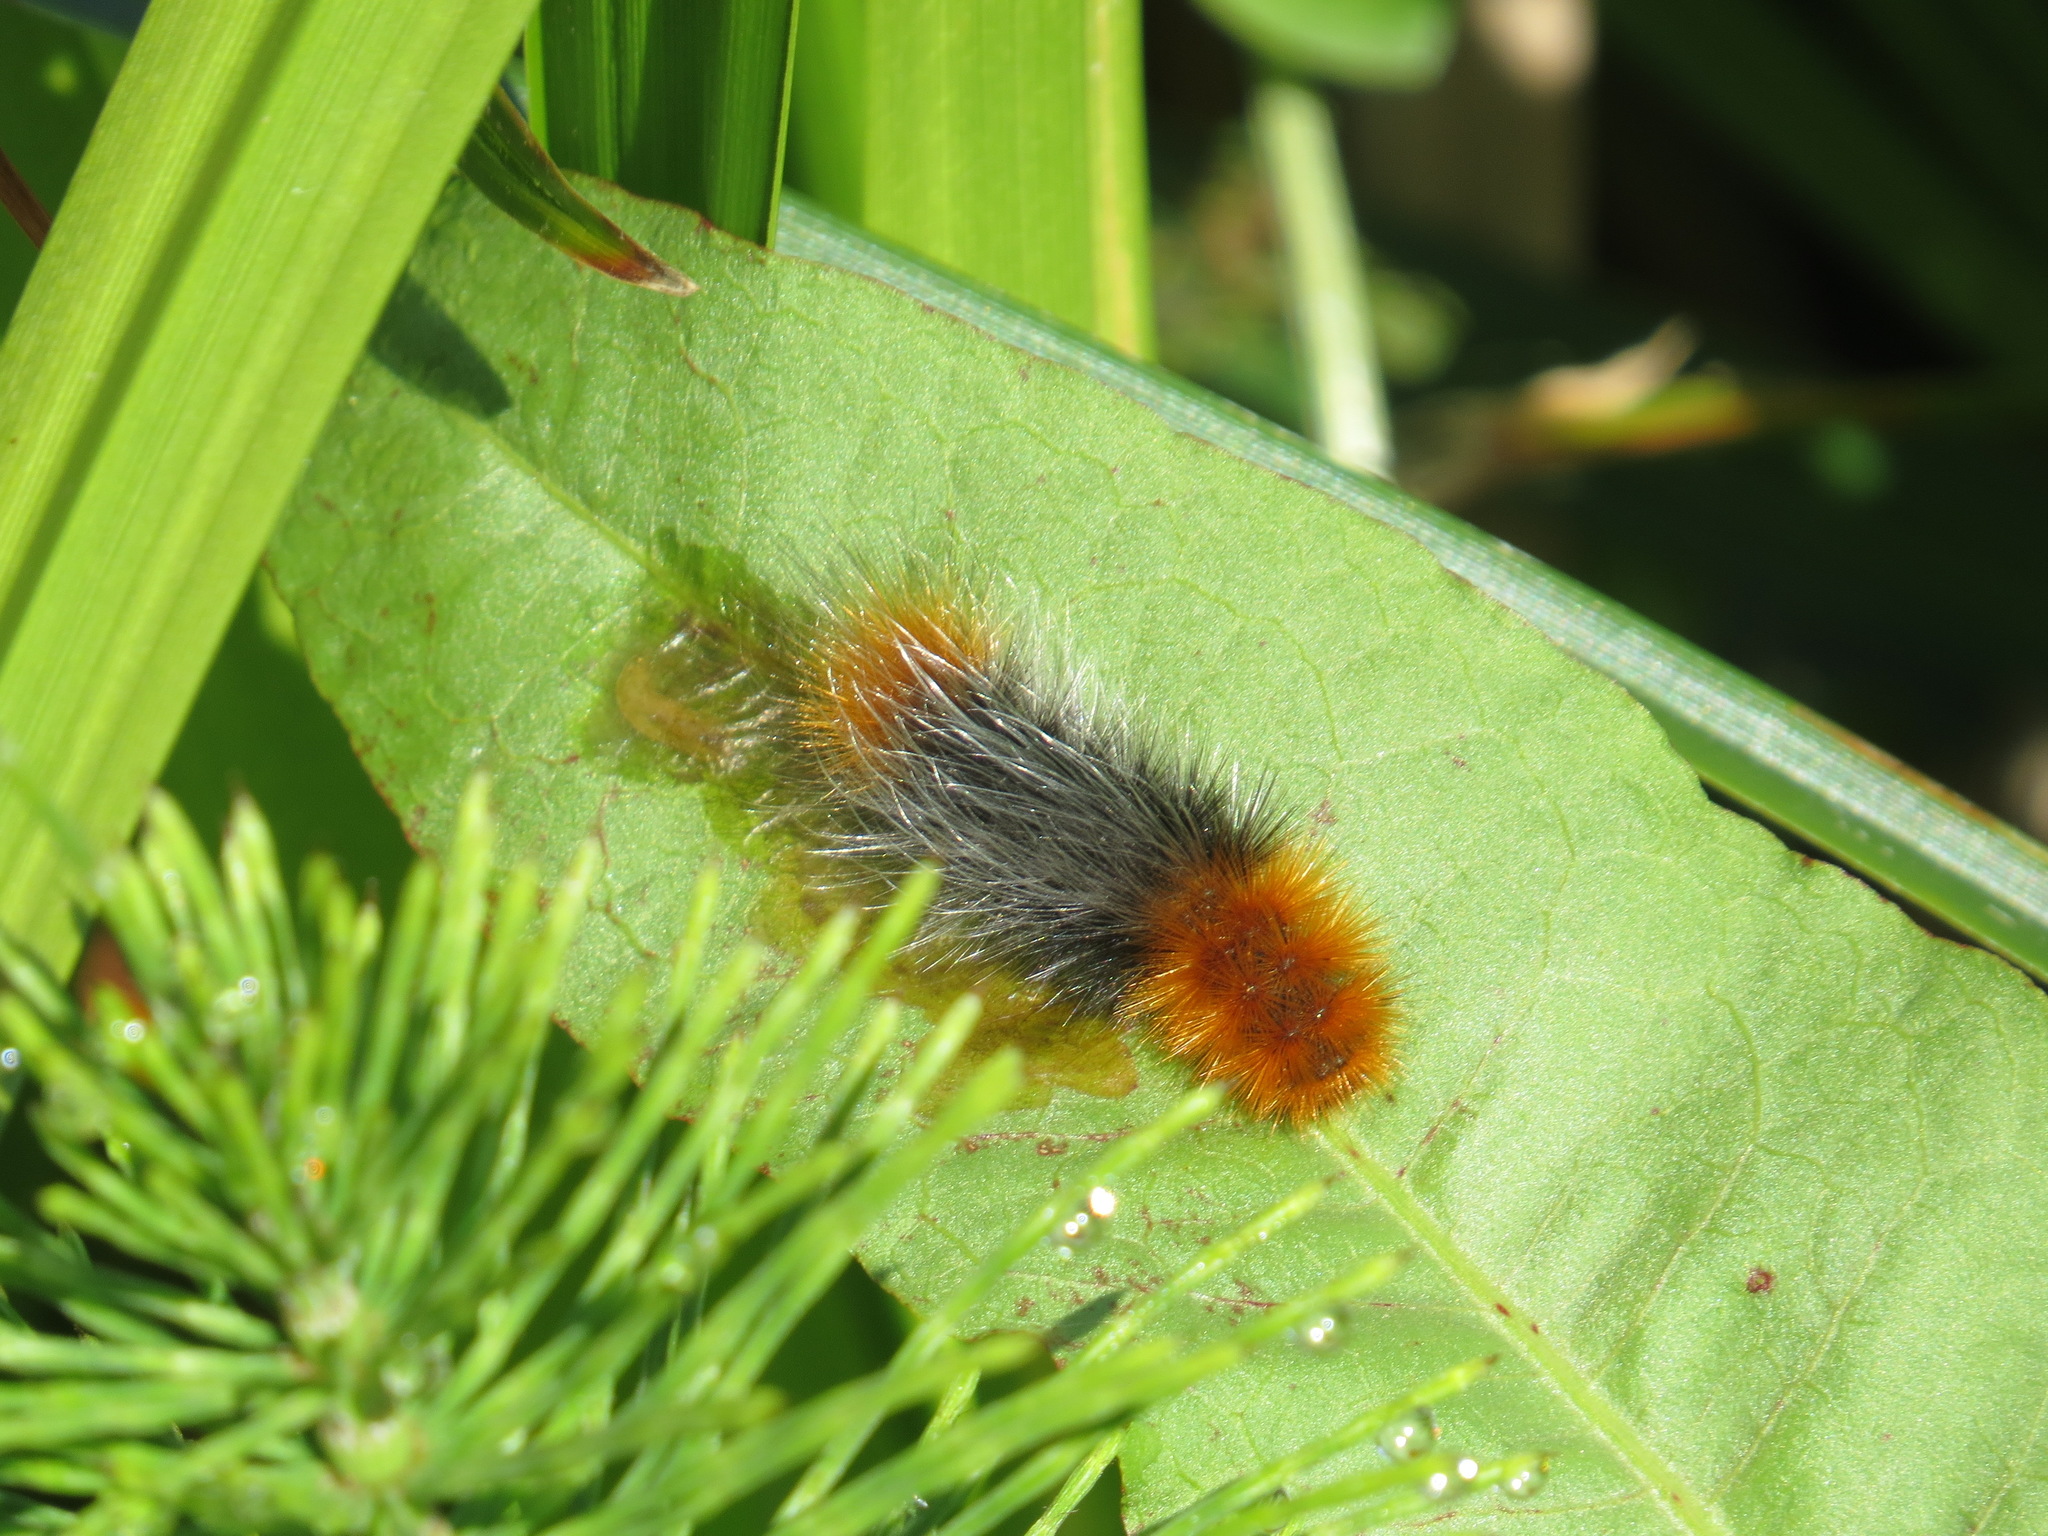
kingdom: Animalia
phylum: Arthropoda
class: Insecta
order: Lepidoptera
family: Erebidae
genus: Arctia
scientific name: Arctia tigrina
